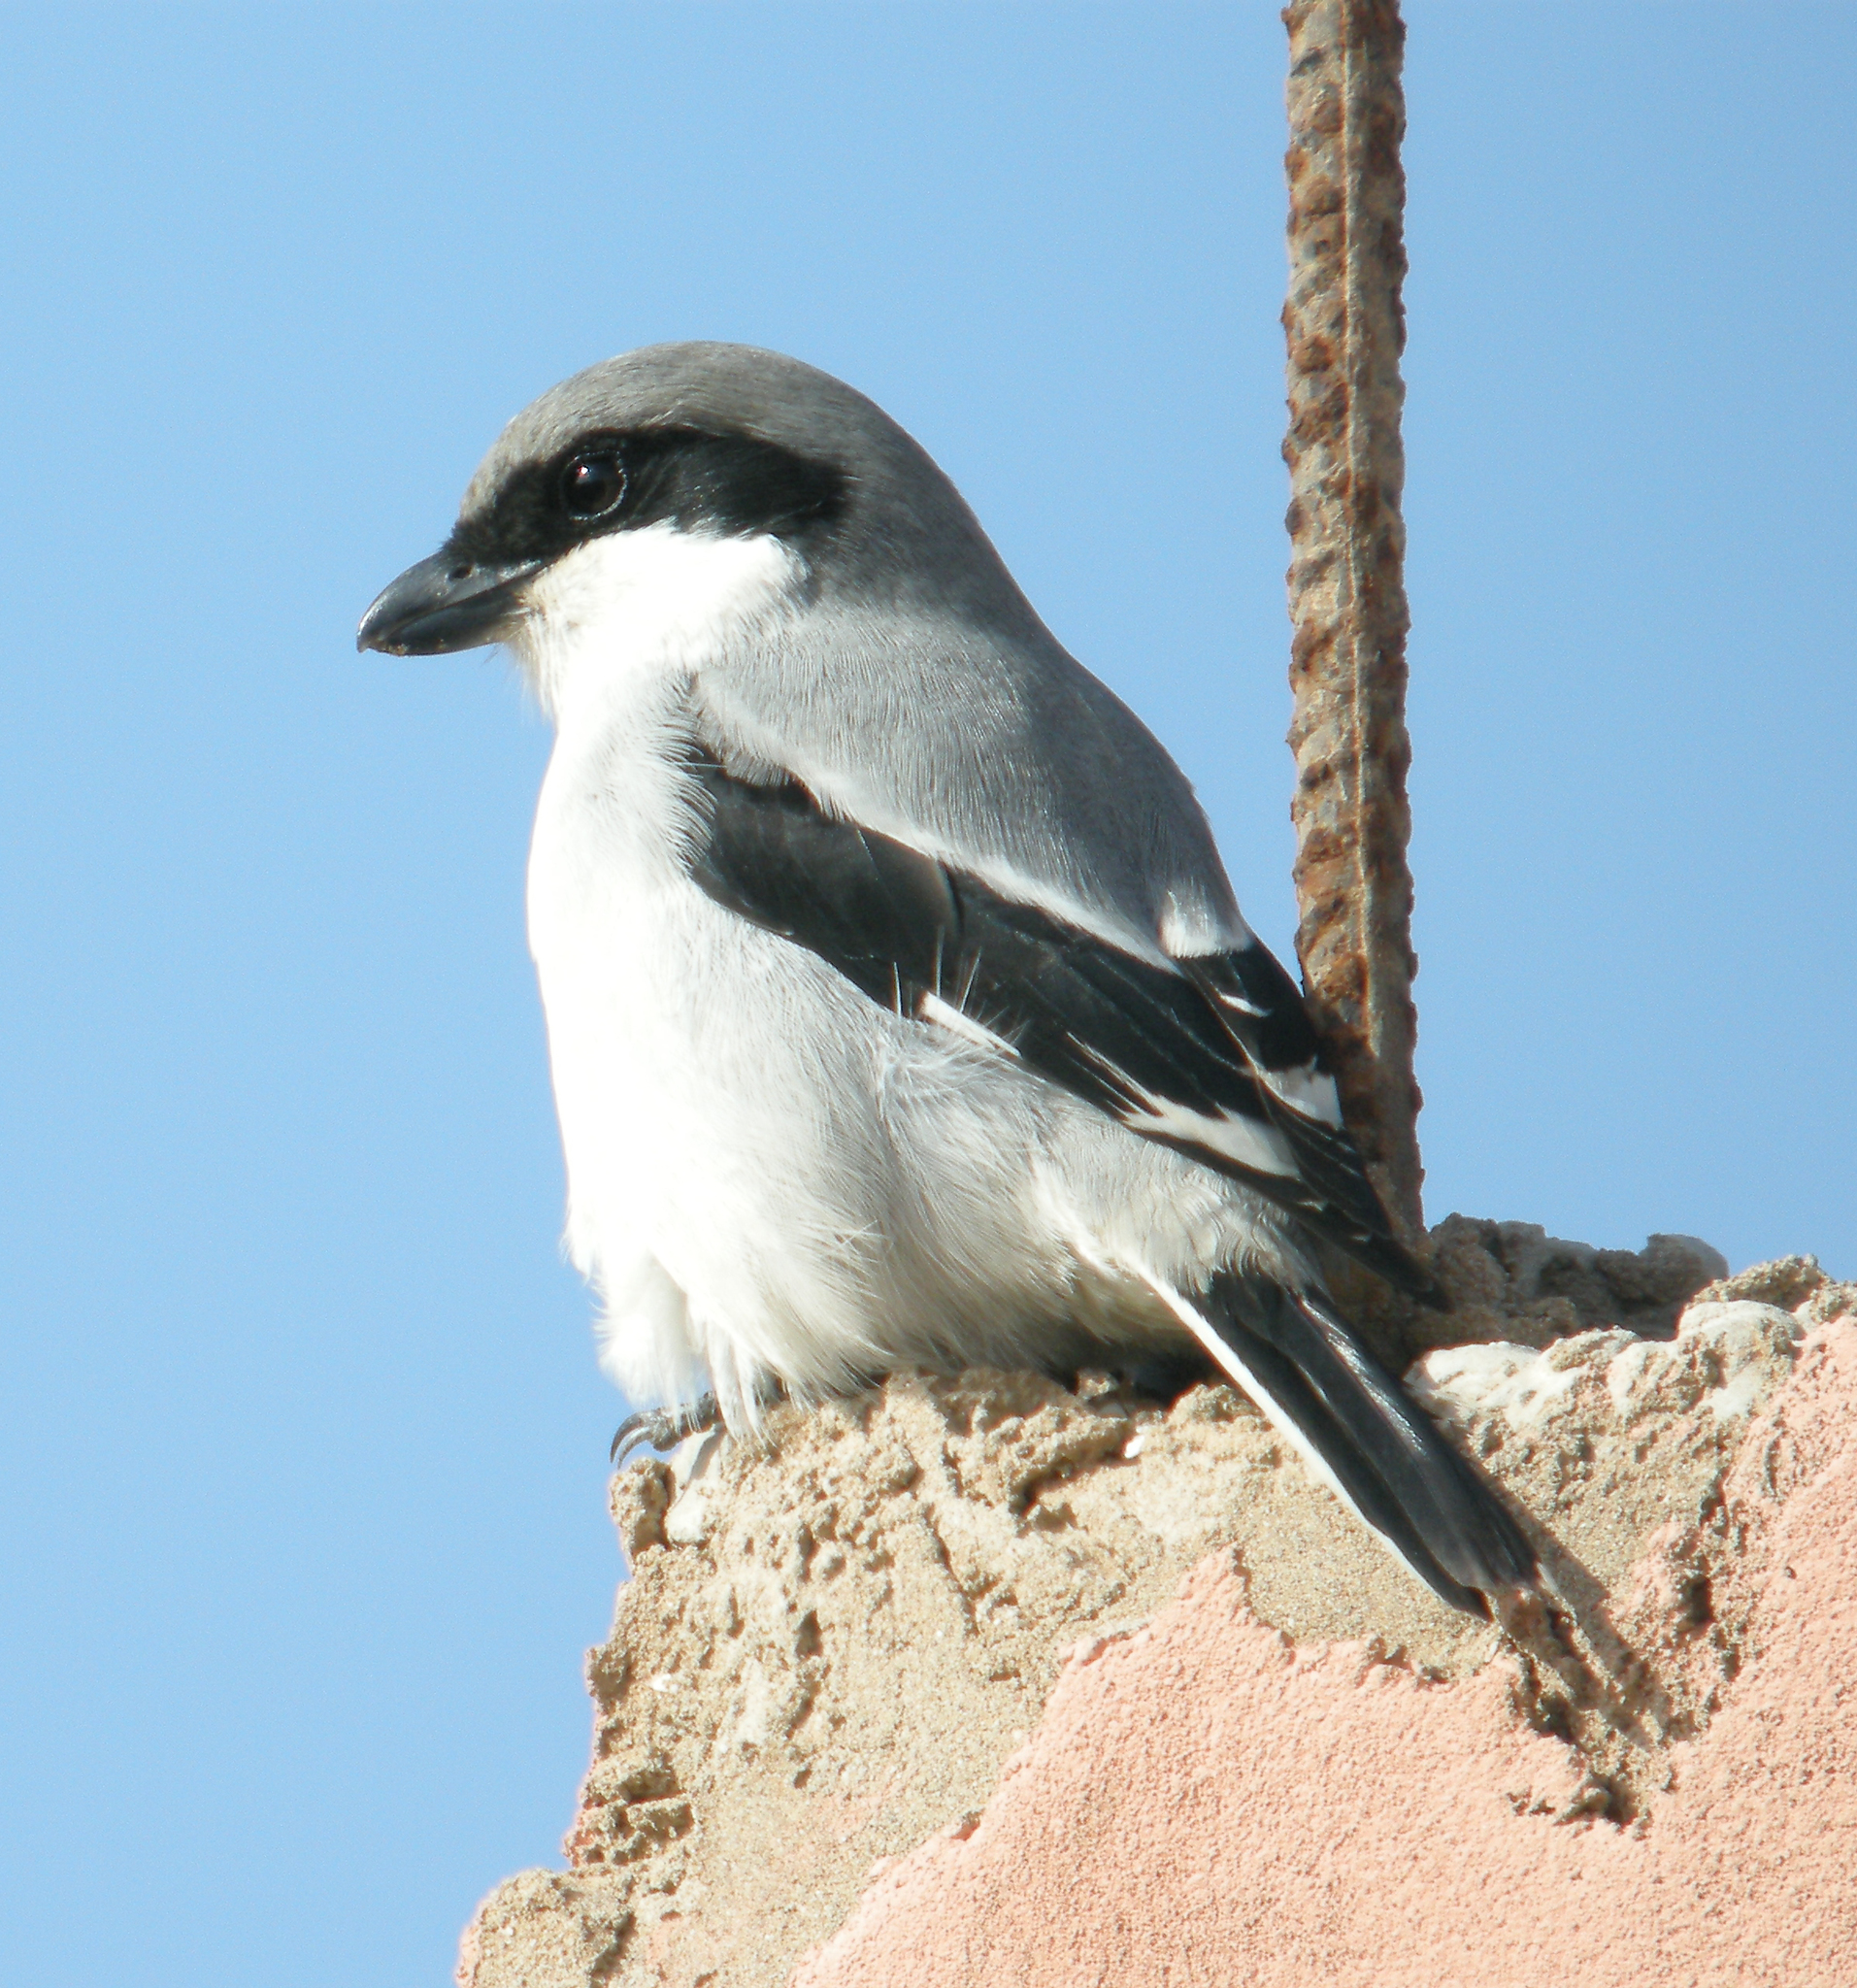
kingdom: Animalia
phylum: Chordata
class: Aves
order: Passeriformes
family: Laniidae
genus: Lanius
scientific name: Lanius excubitor
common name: Great grey shrike
